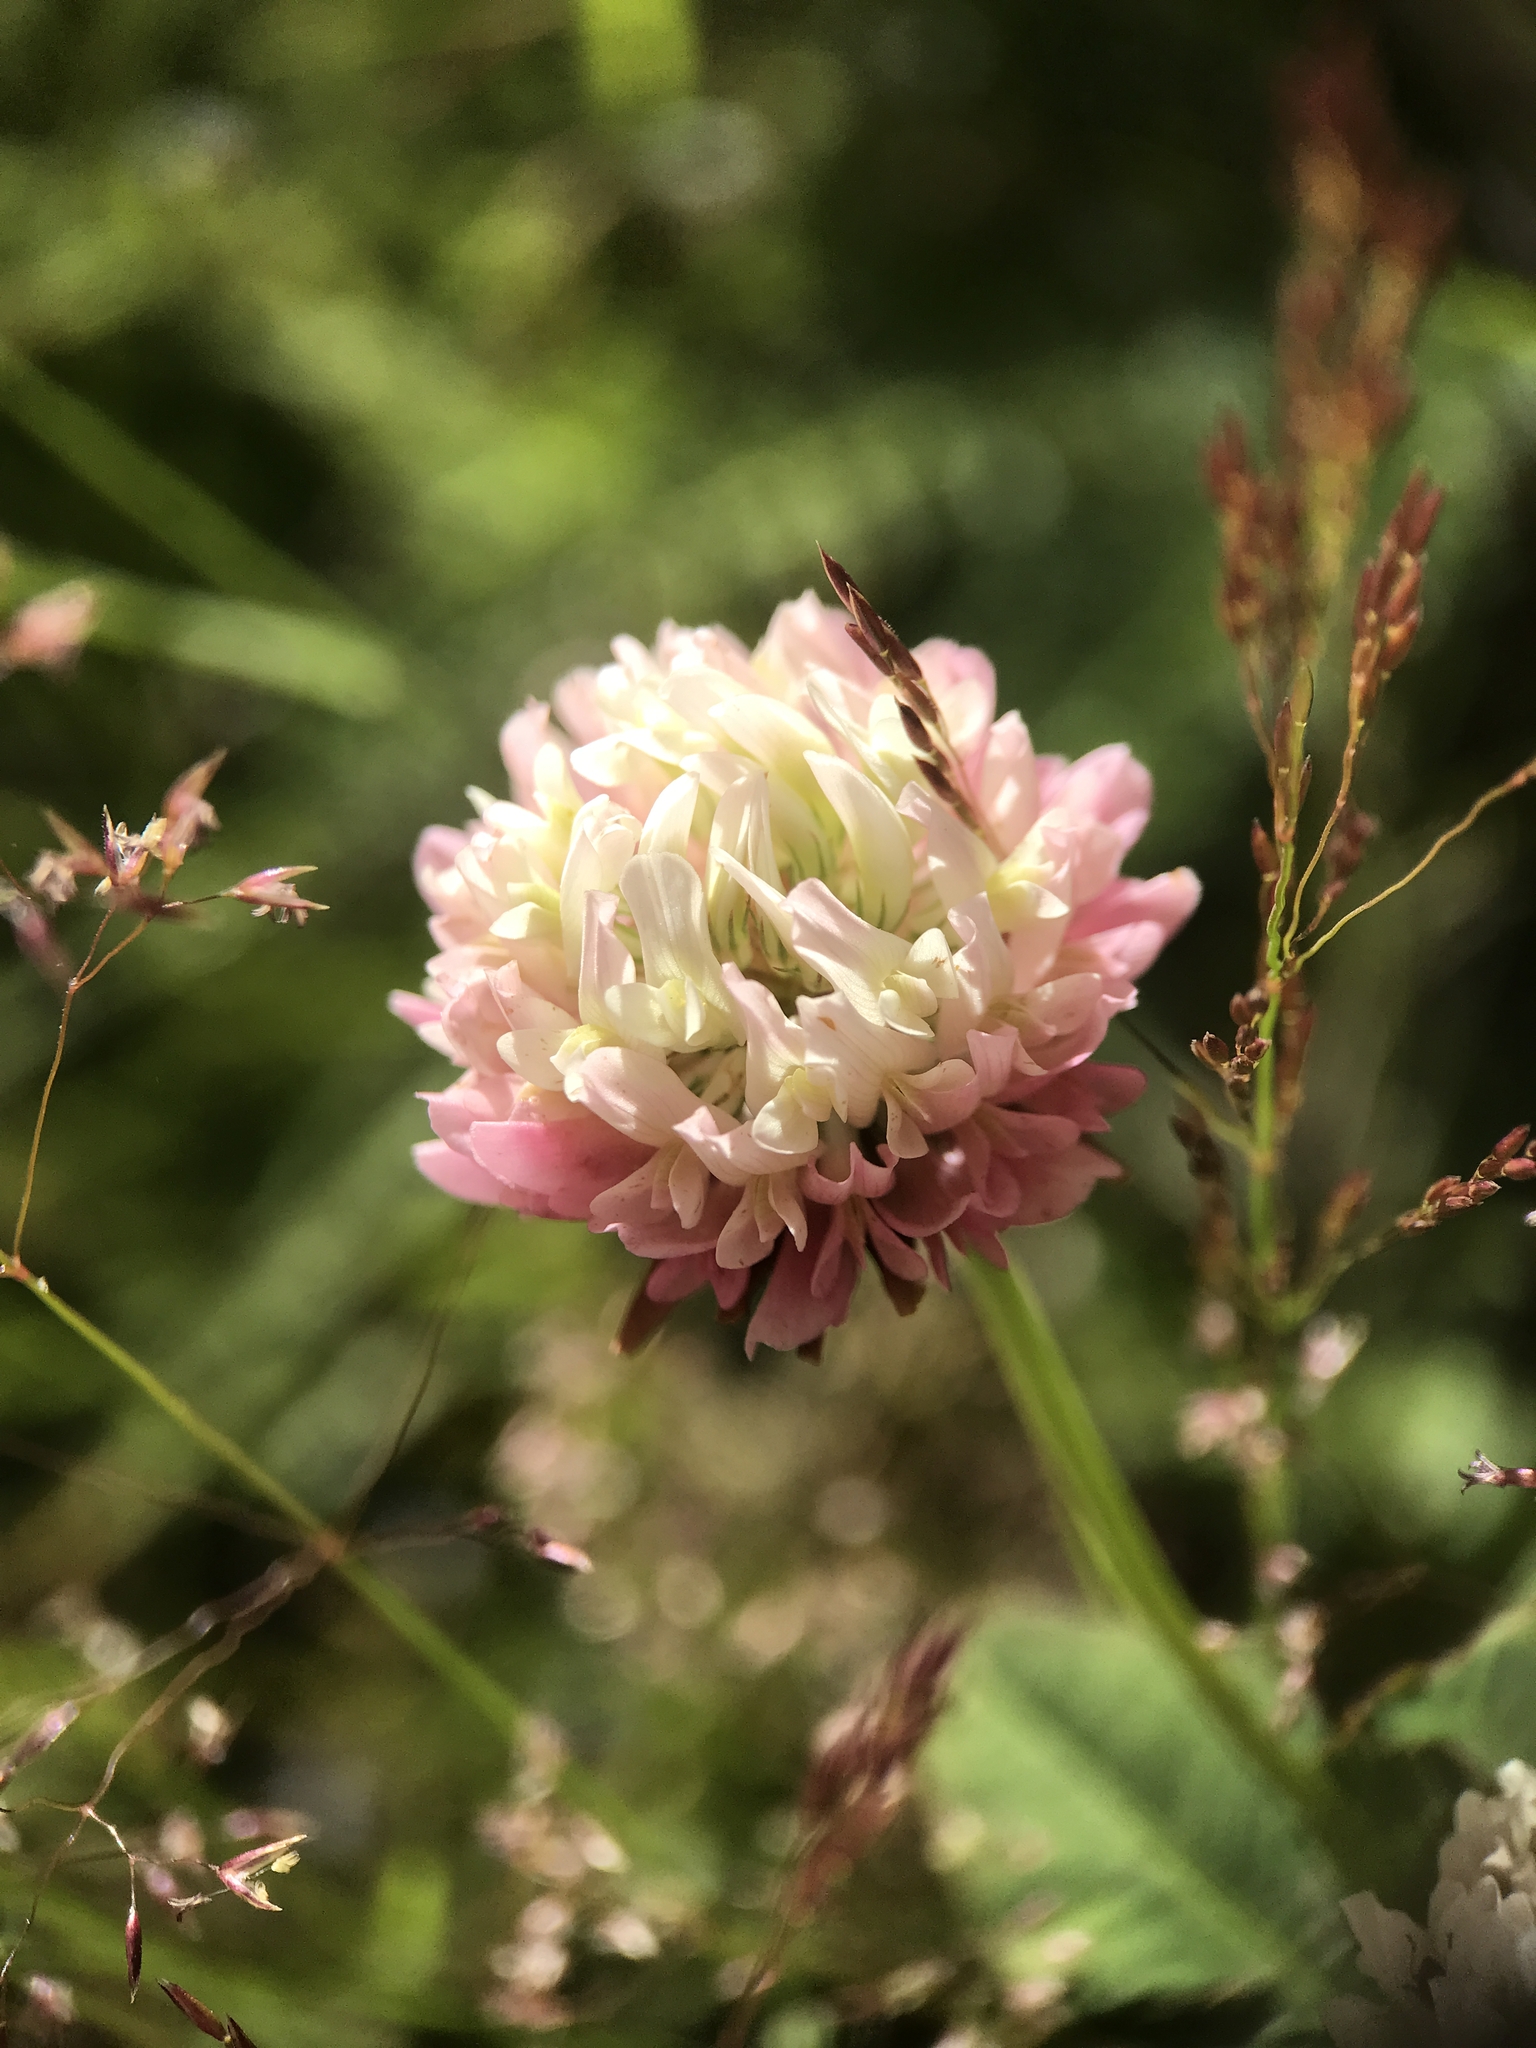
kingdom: Plantae
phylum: Tracheophyta
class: Magnoliopsida
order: Fabales
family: Fabaceae
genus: Trifolium
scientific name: Trifolium hybridum
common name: Alsike clover
